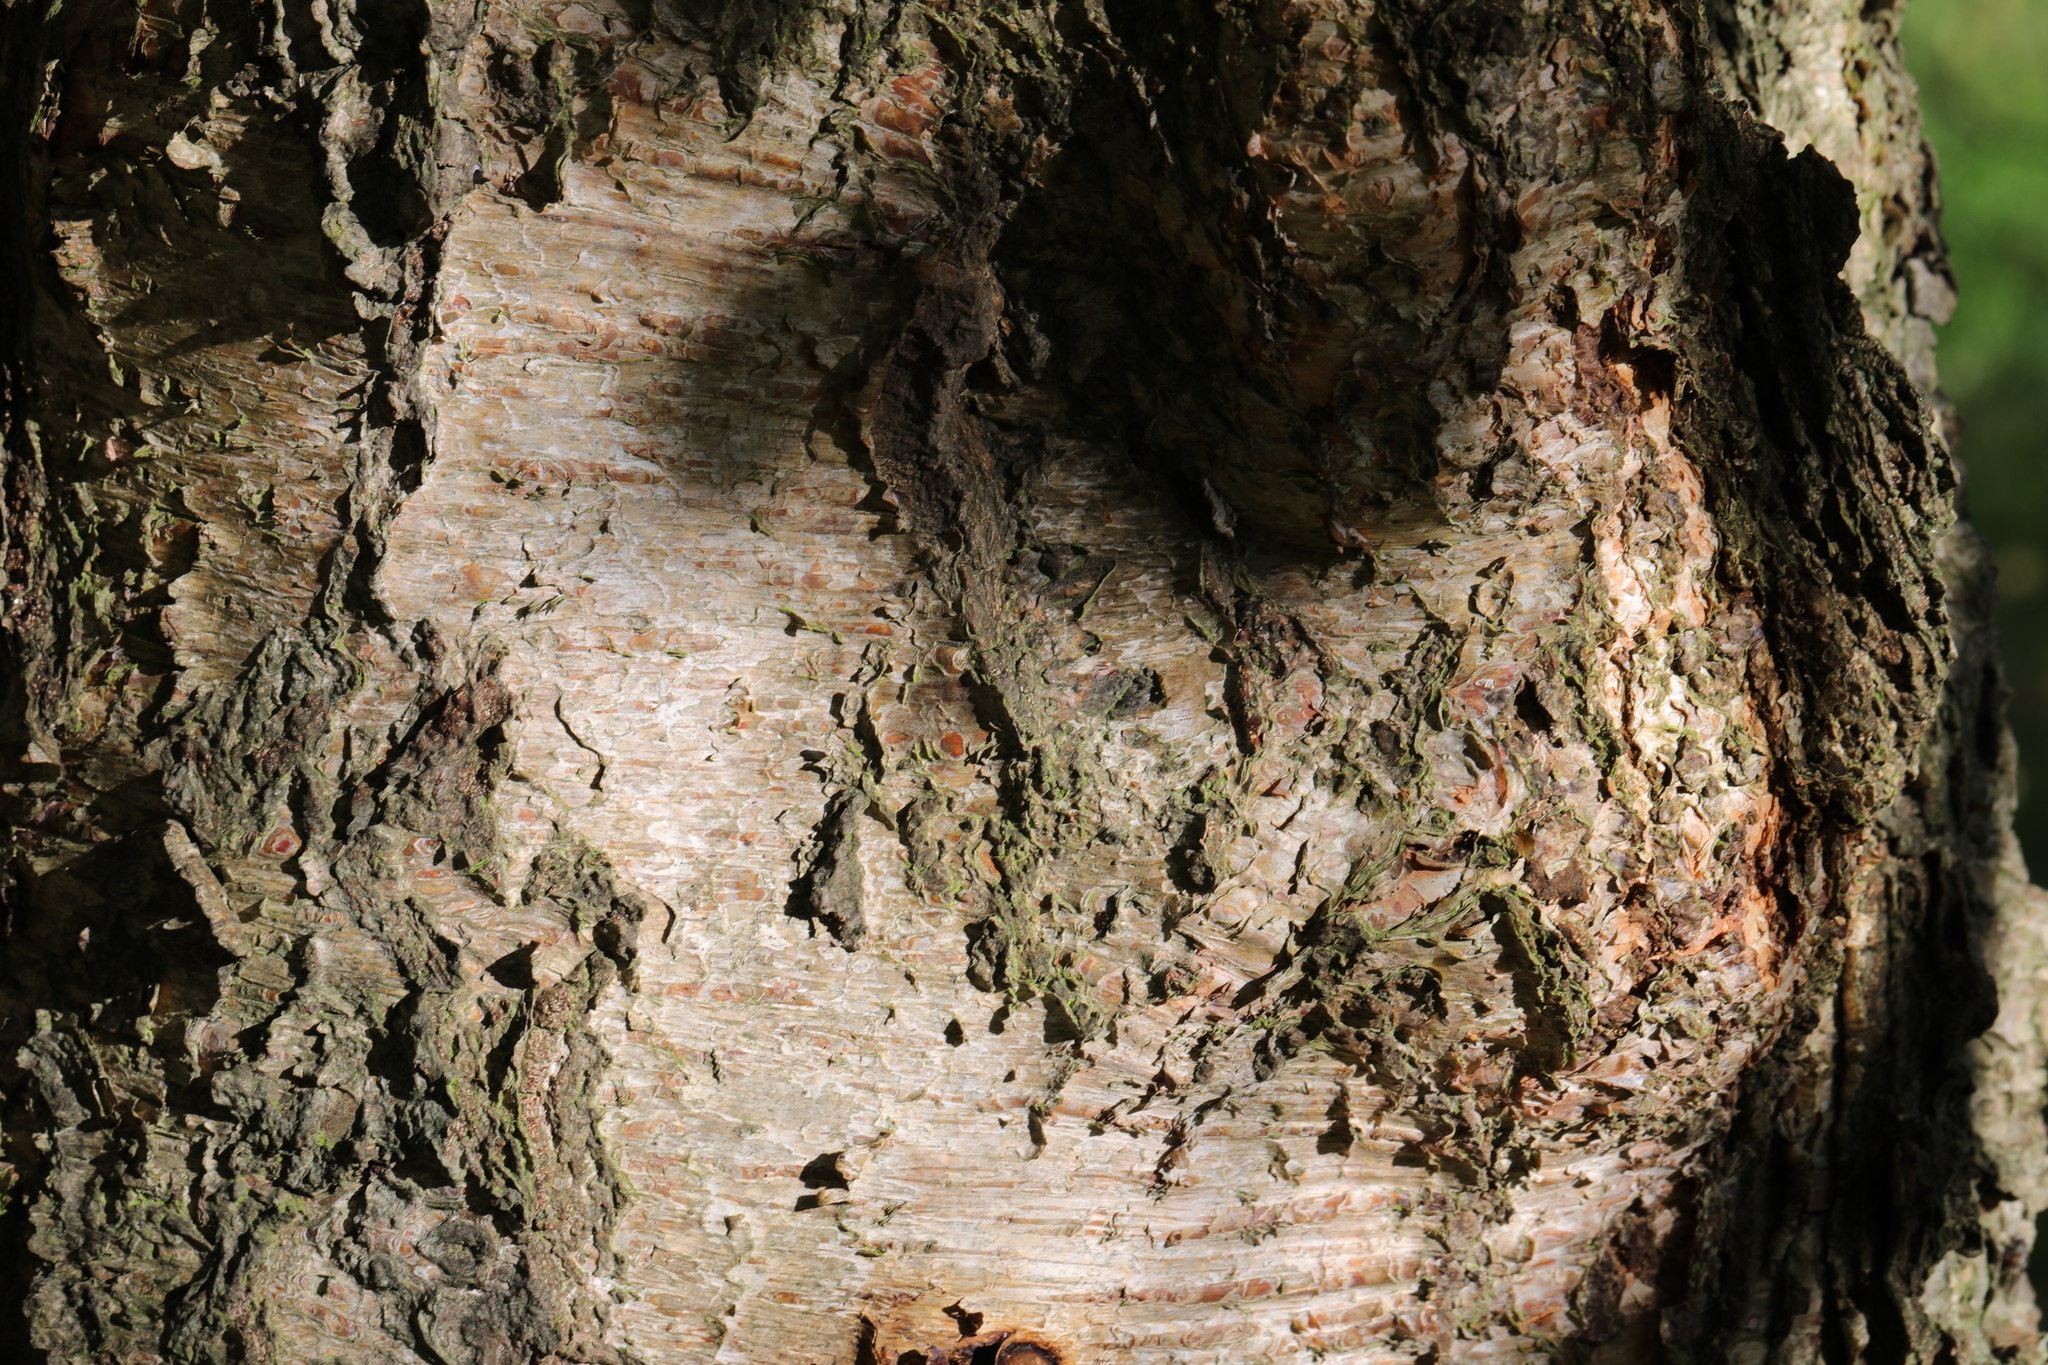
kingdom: Plantae
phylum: Tracheophyta
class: Magnoliopsida
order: Fagales
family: Betulaceae
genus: Betula
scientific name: Betula pendula
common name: Silver birch
